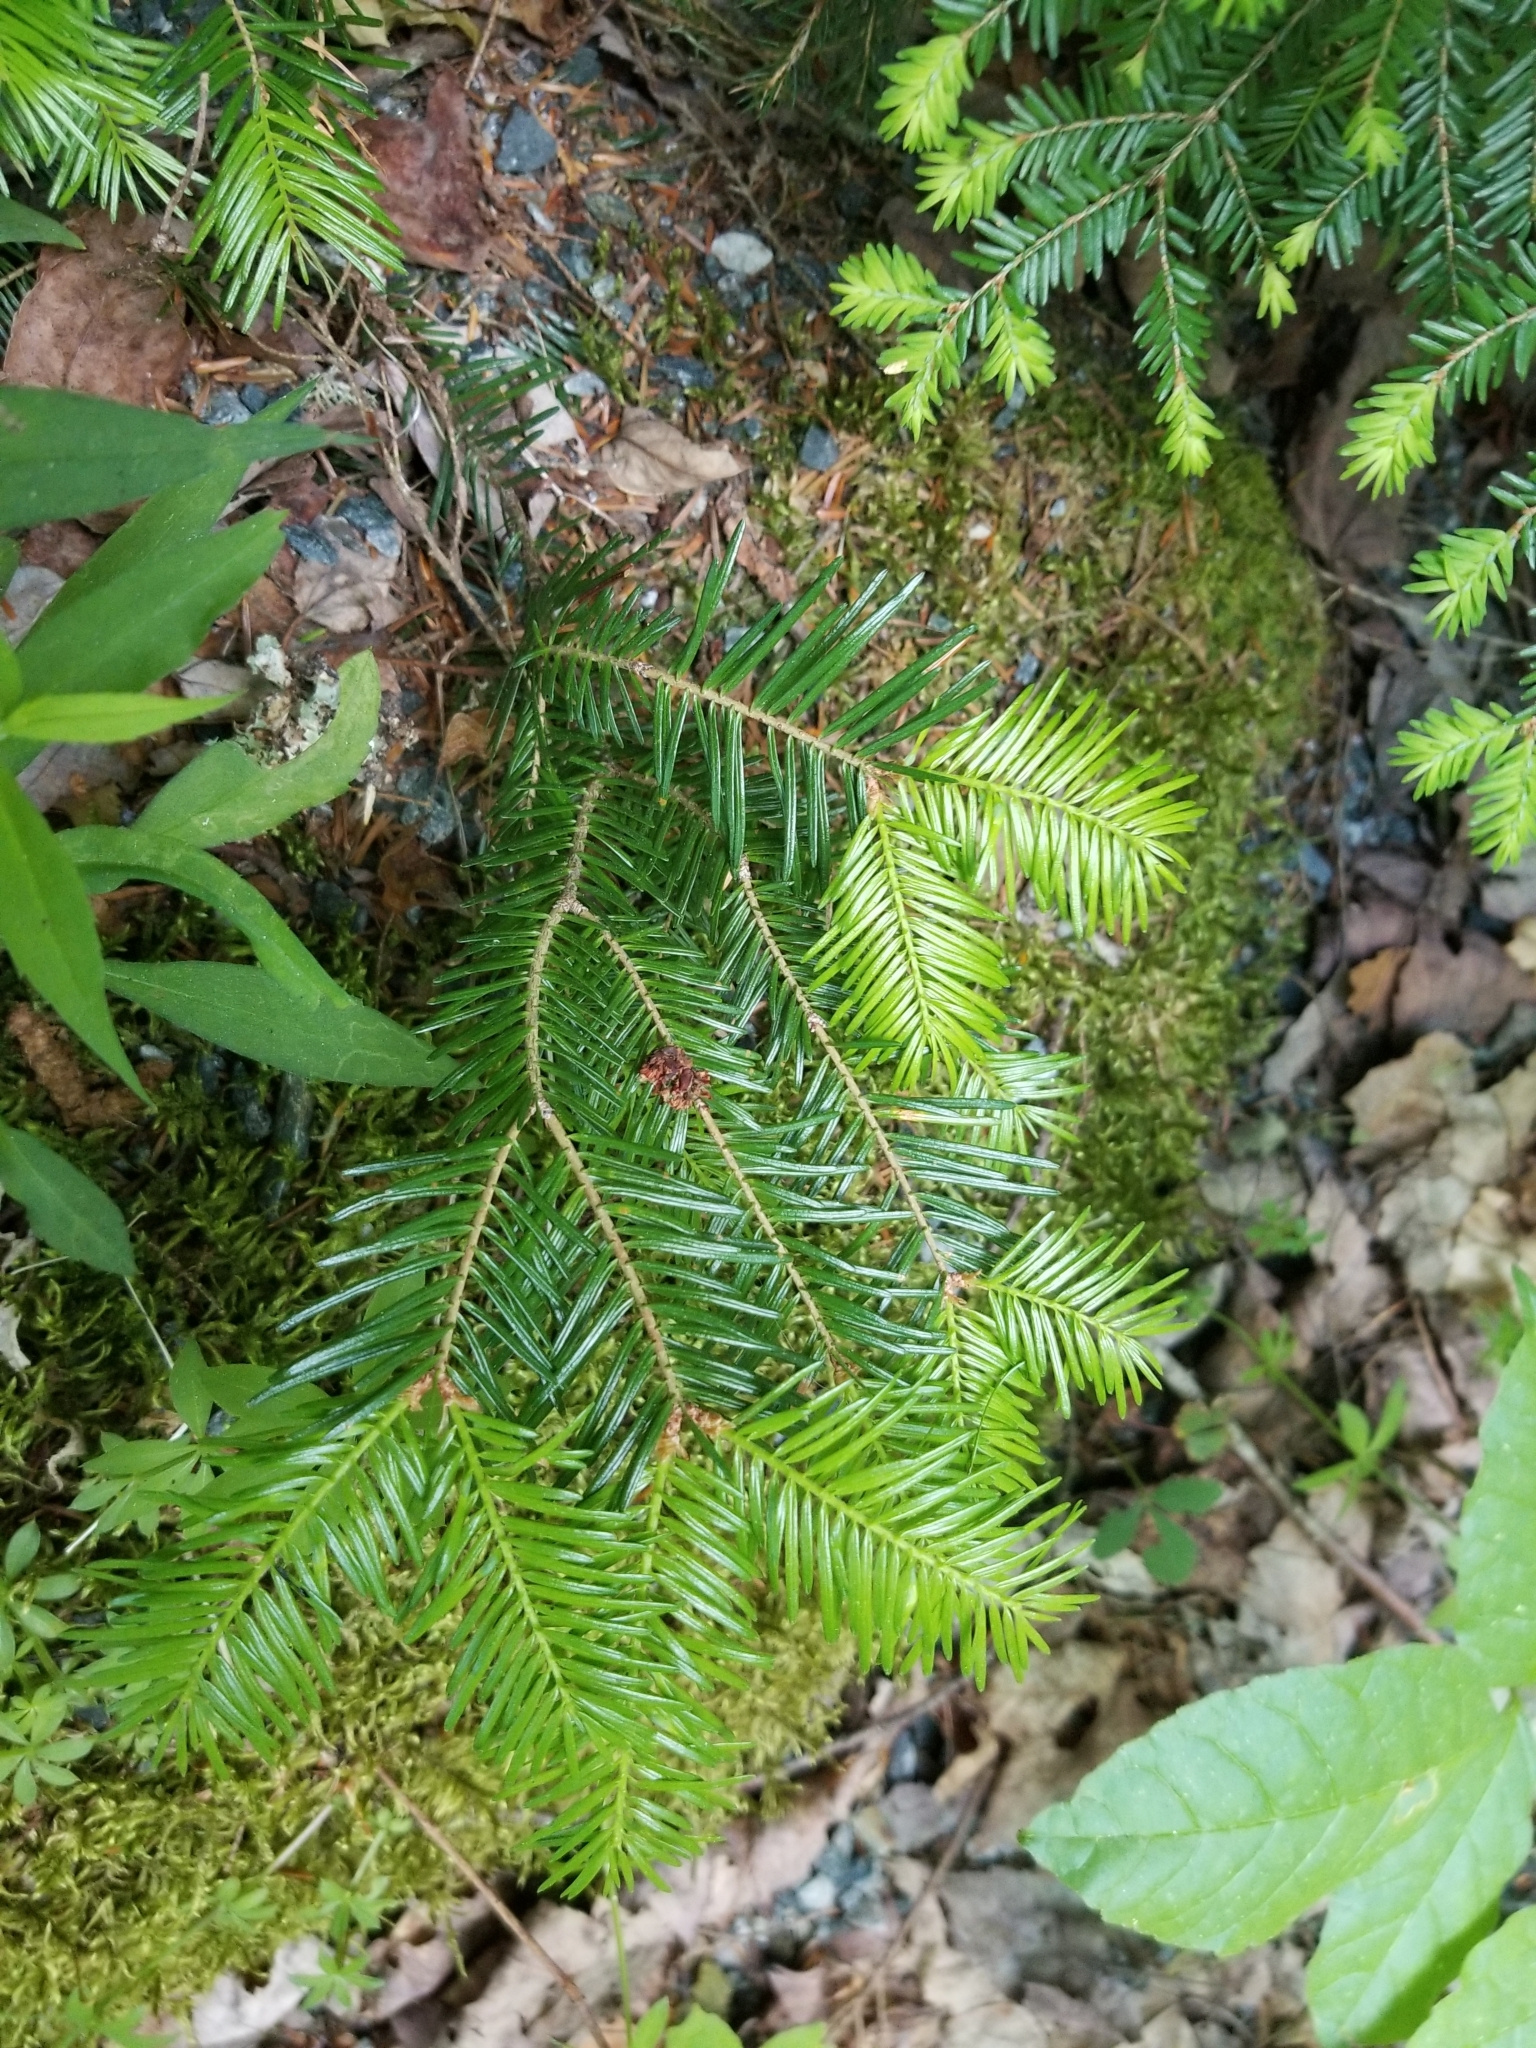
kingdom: Plantae
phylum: Tracheophyta
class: Pinopsida
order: Pinales
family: Pinaceae
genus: Abies
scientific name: Abies balsamea
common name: Balsam fir
